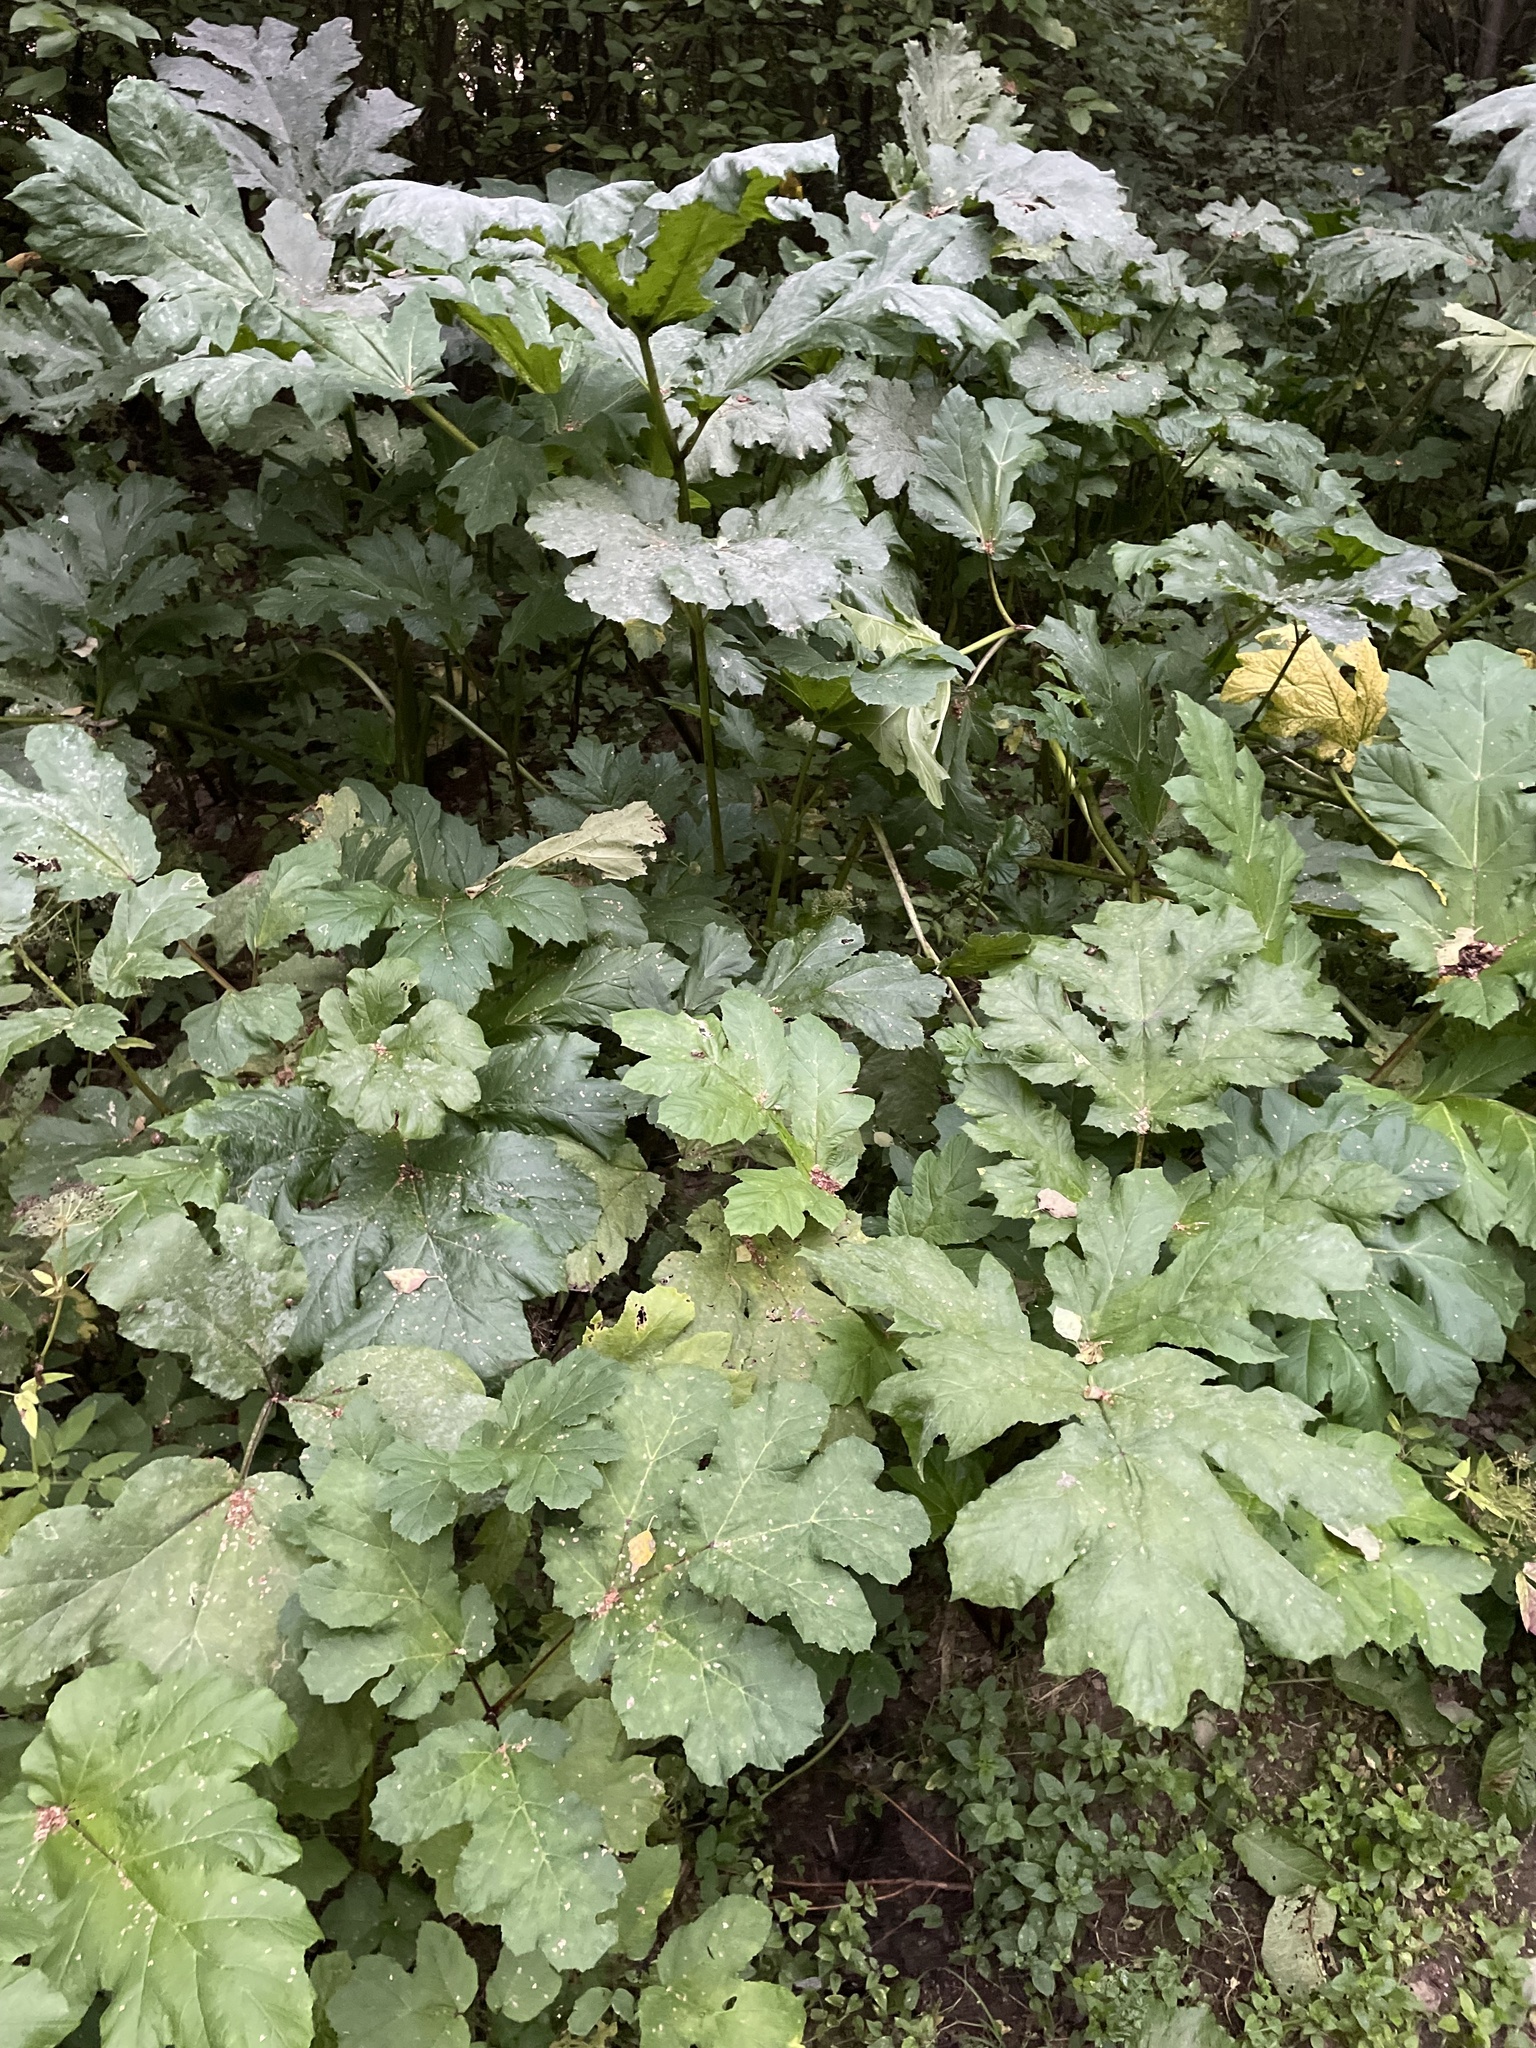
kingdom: Plantae
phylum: Tracheophyta
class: Magnoliopsida
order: Apiales
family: Apiaceae
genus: Heracleum
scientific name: Heracleum sosnowskyi
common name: Sosnowsky's hogweed
